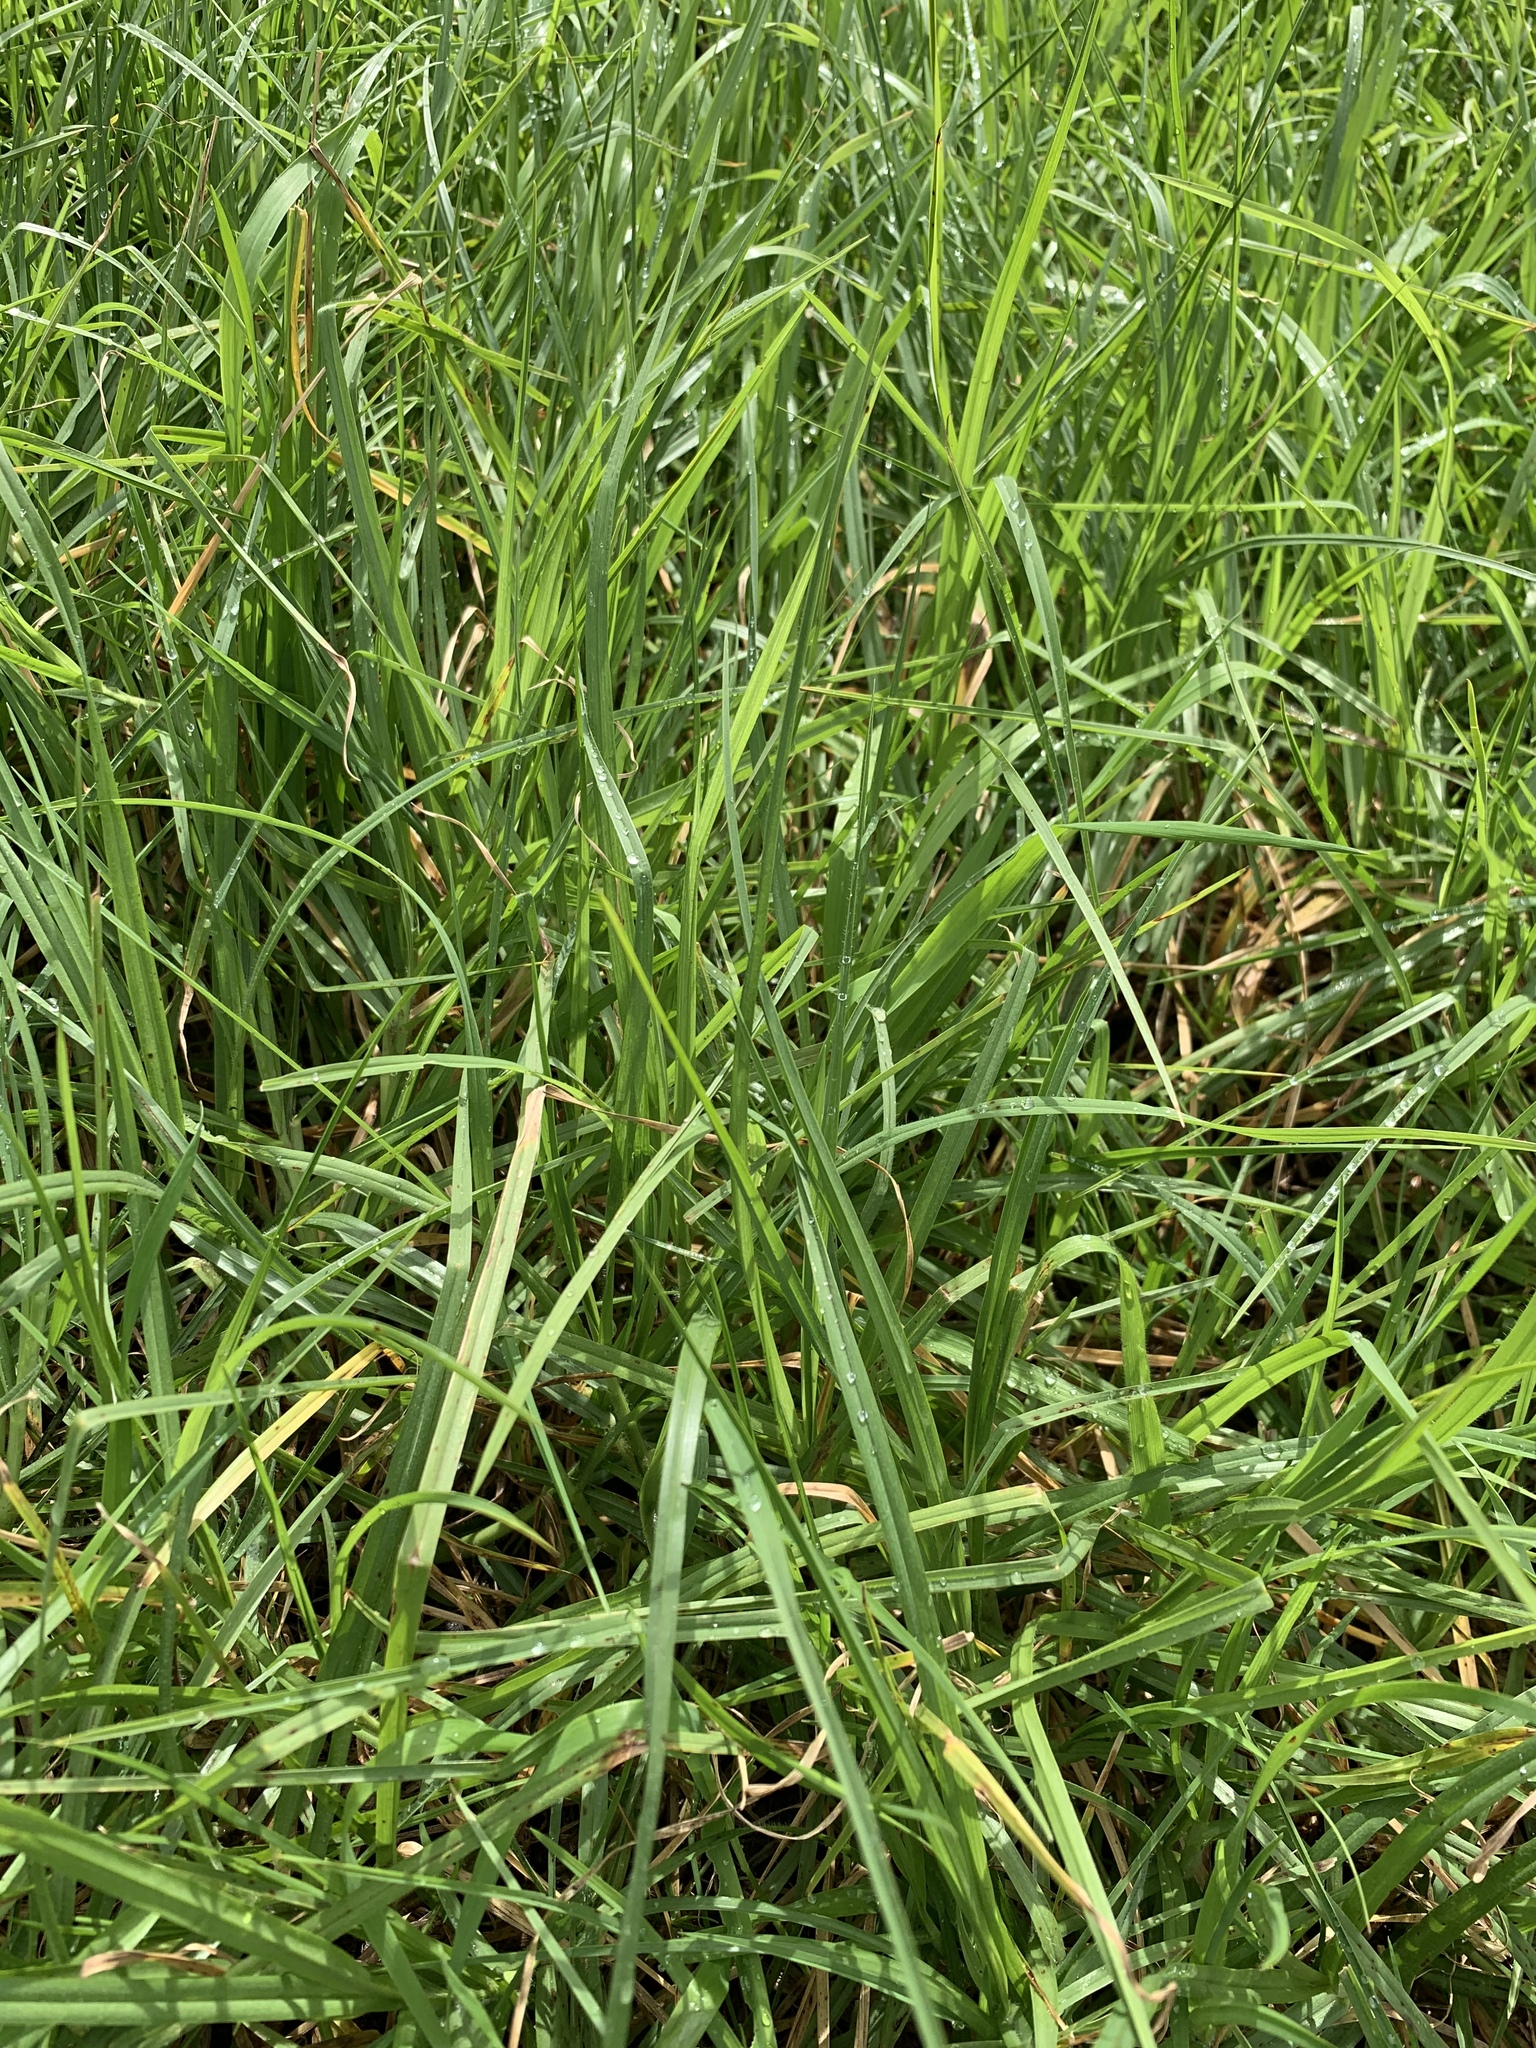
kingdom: Plantae
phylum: Tracheophyta
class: Liliopsida
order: Poales
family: Poaceae
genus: Cenchrus
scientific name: Cenchrus clandestinus
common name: Kikuyugrass
